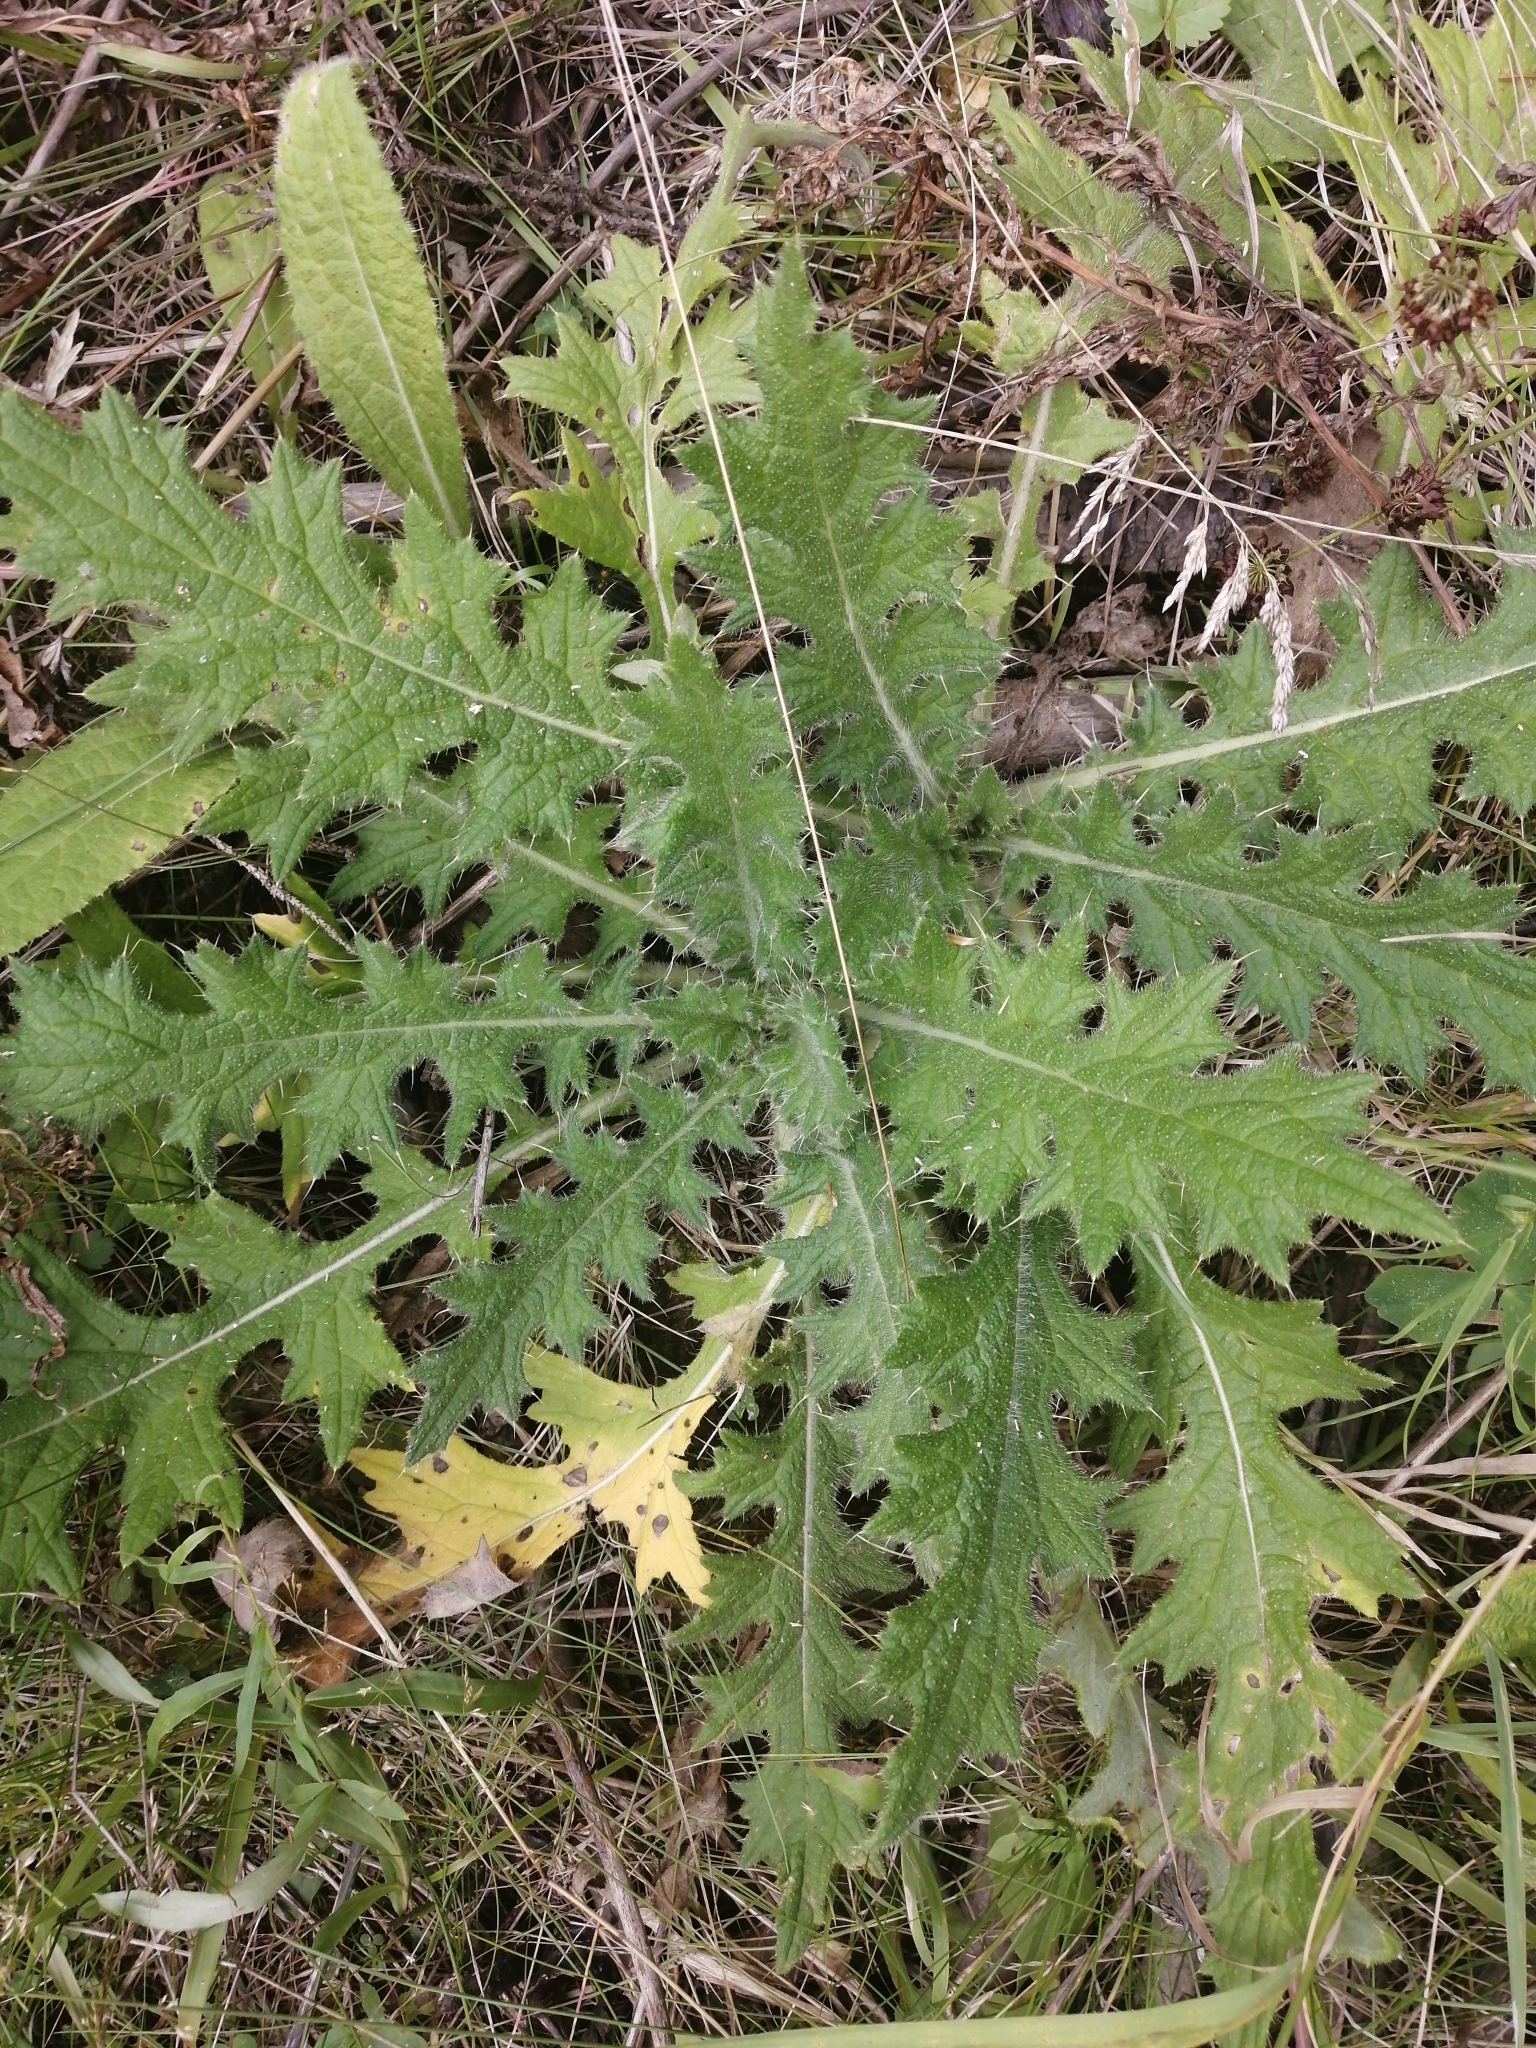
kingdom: Plantae
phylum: Tracheophyta
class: Magnoliopsida
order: Asterales
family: Asteraceae
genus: Cirsium
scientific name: Cirsium vulgare
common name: Bull thistle
